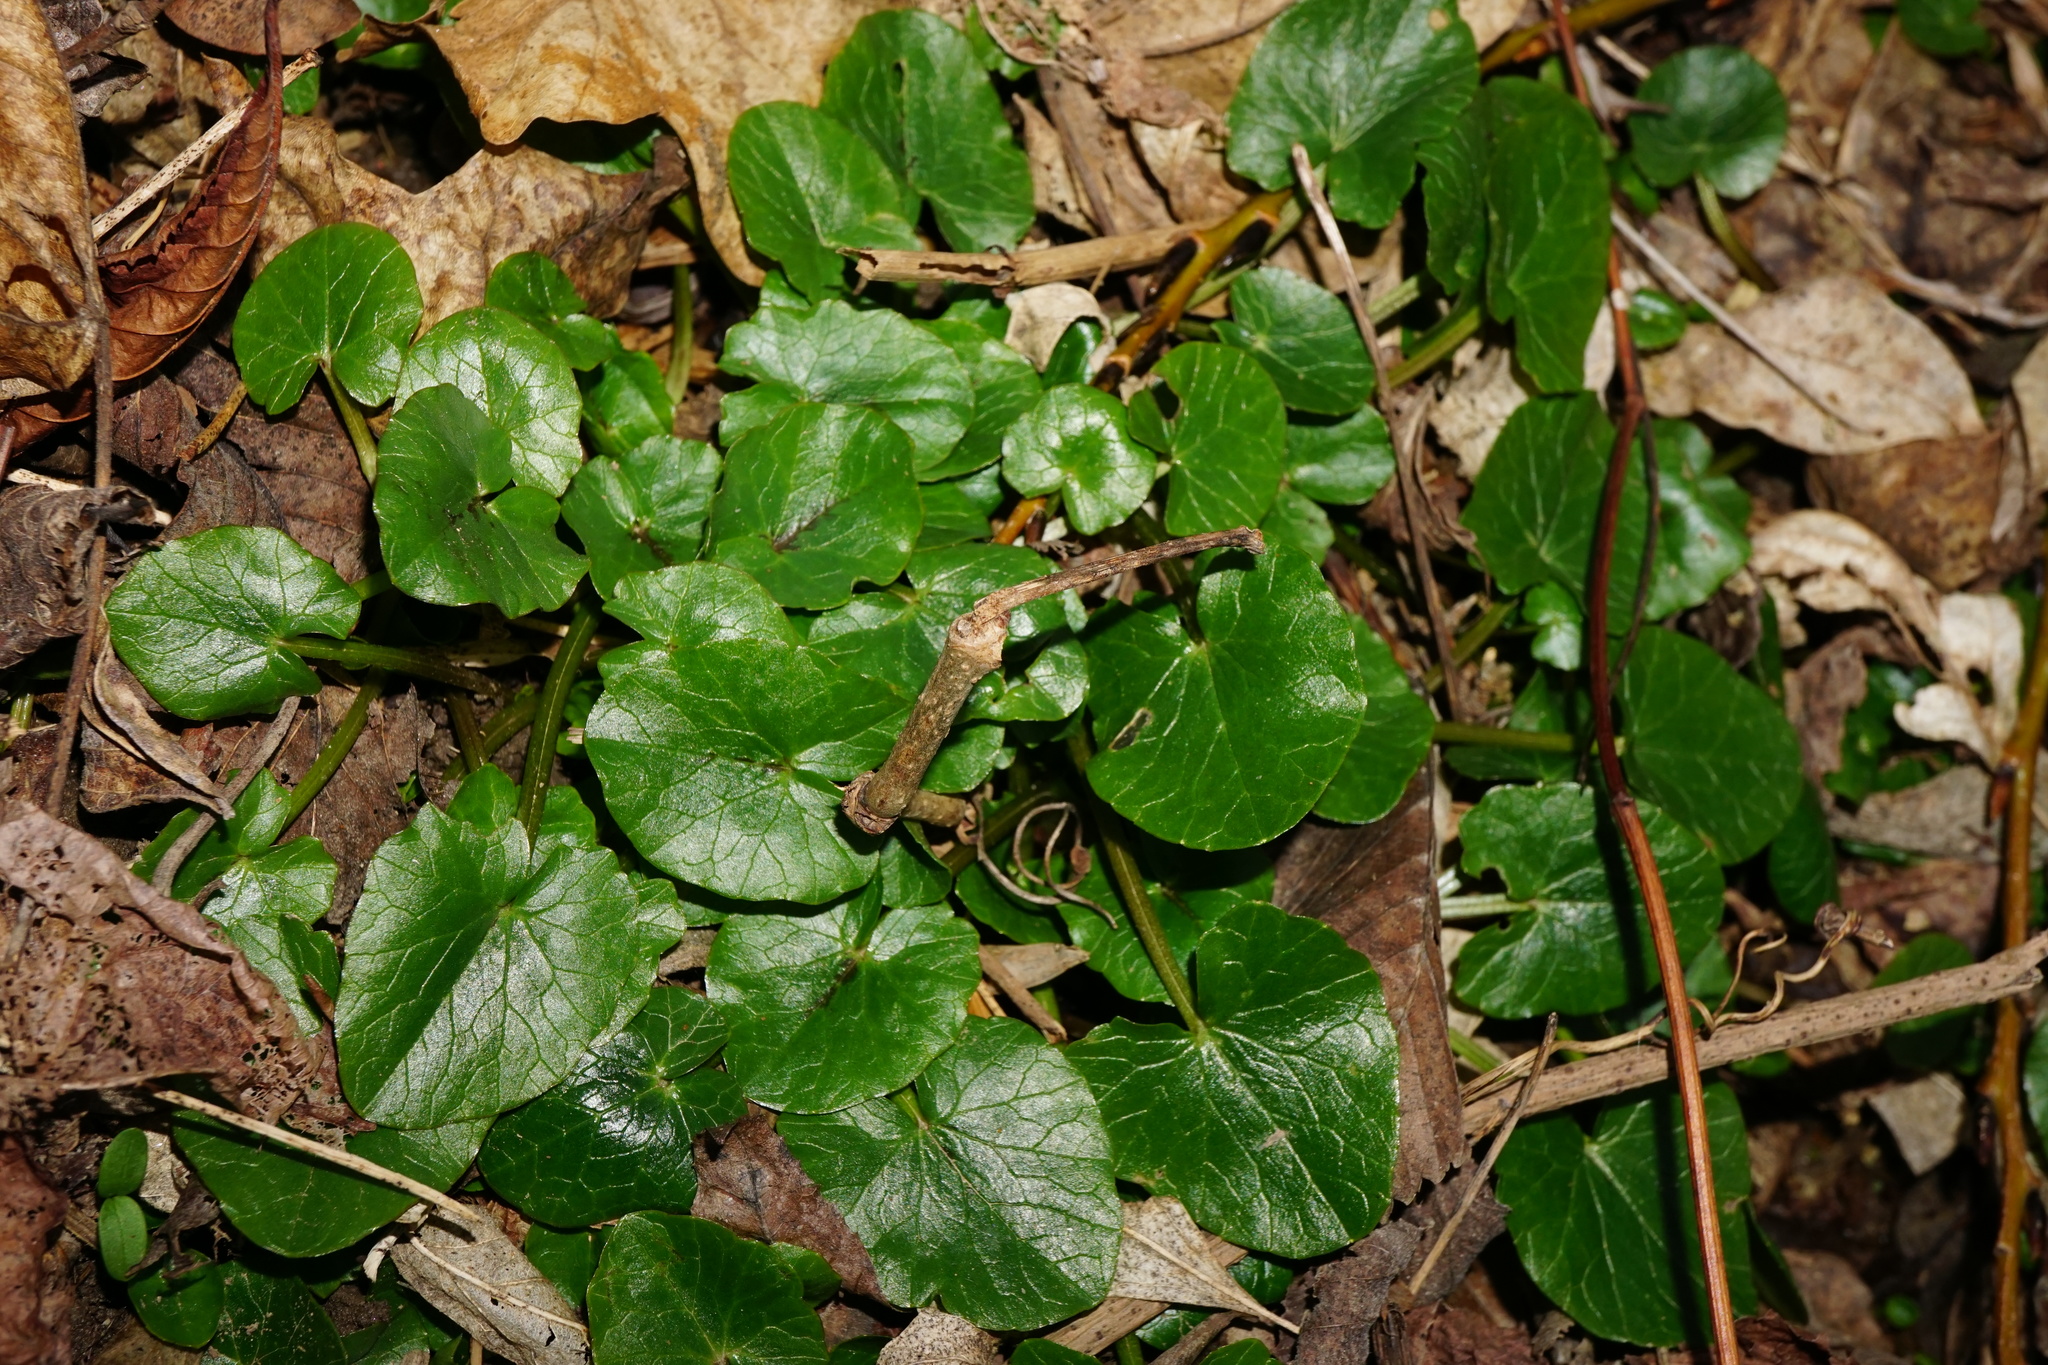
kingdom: Plantae
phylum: Tracheophyta
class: Magnoliopsida
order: Ranunculales
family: Ranunculaceae
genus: Ficaria
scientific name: Ficaria verna
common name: Lesser celandine
